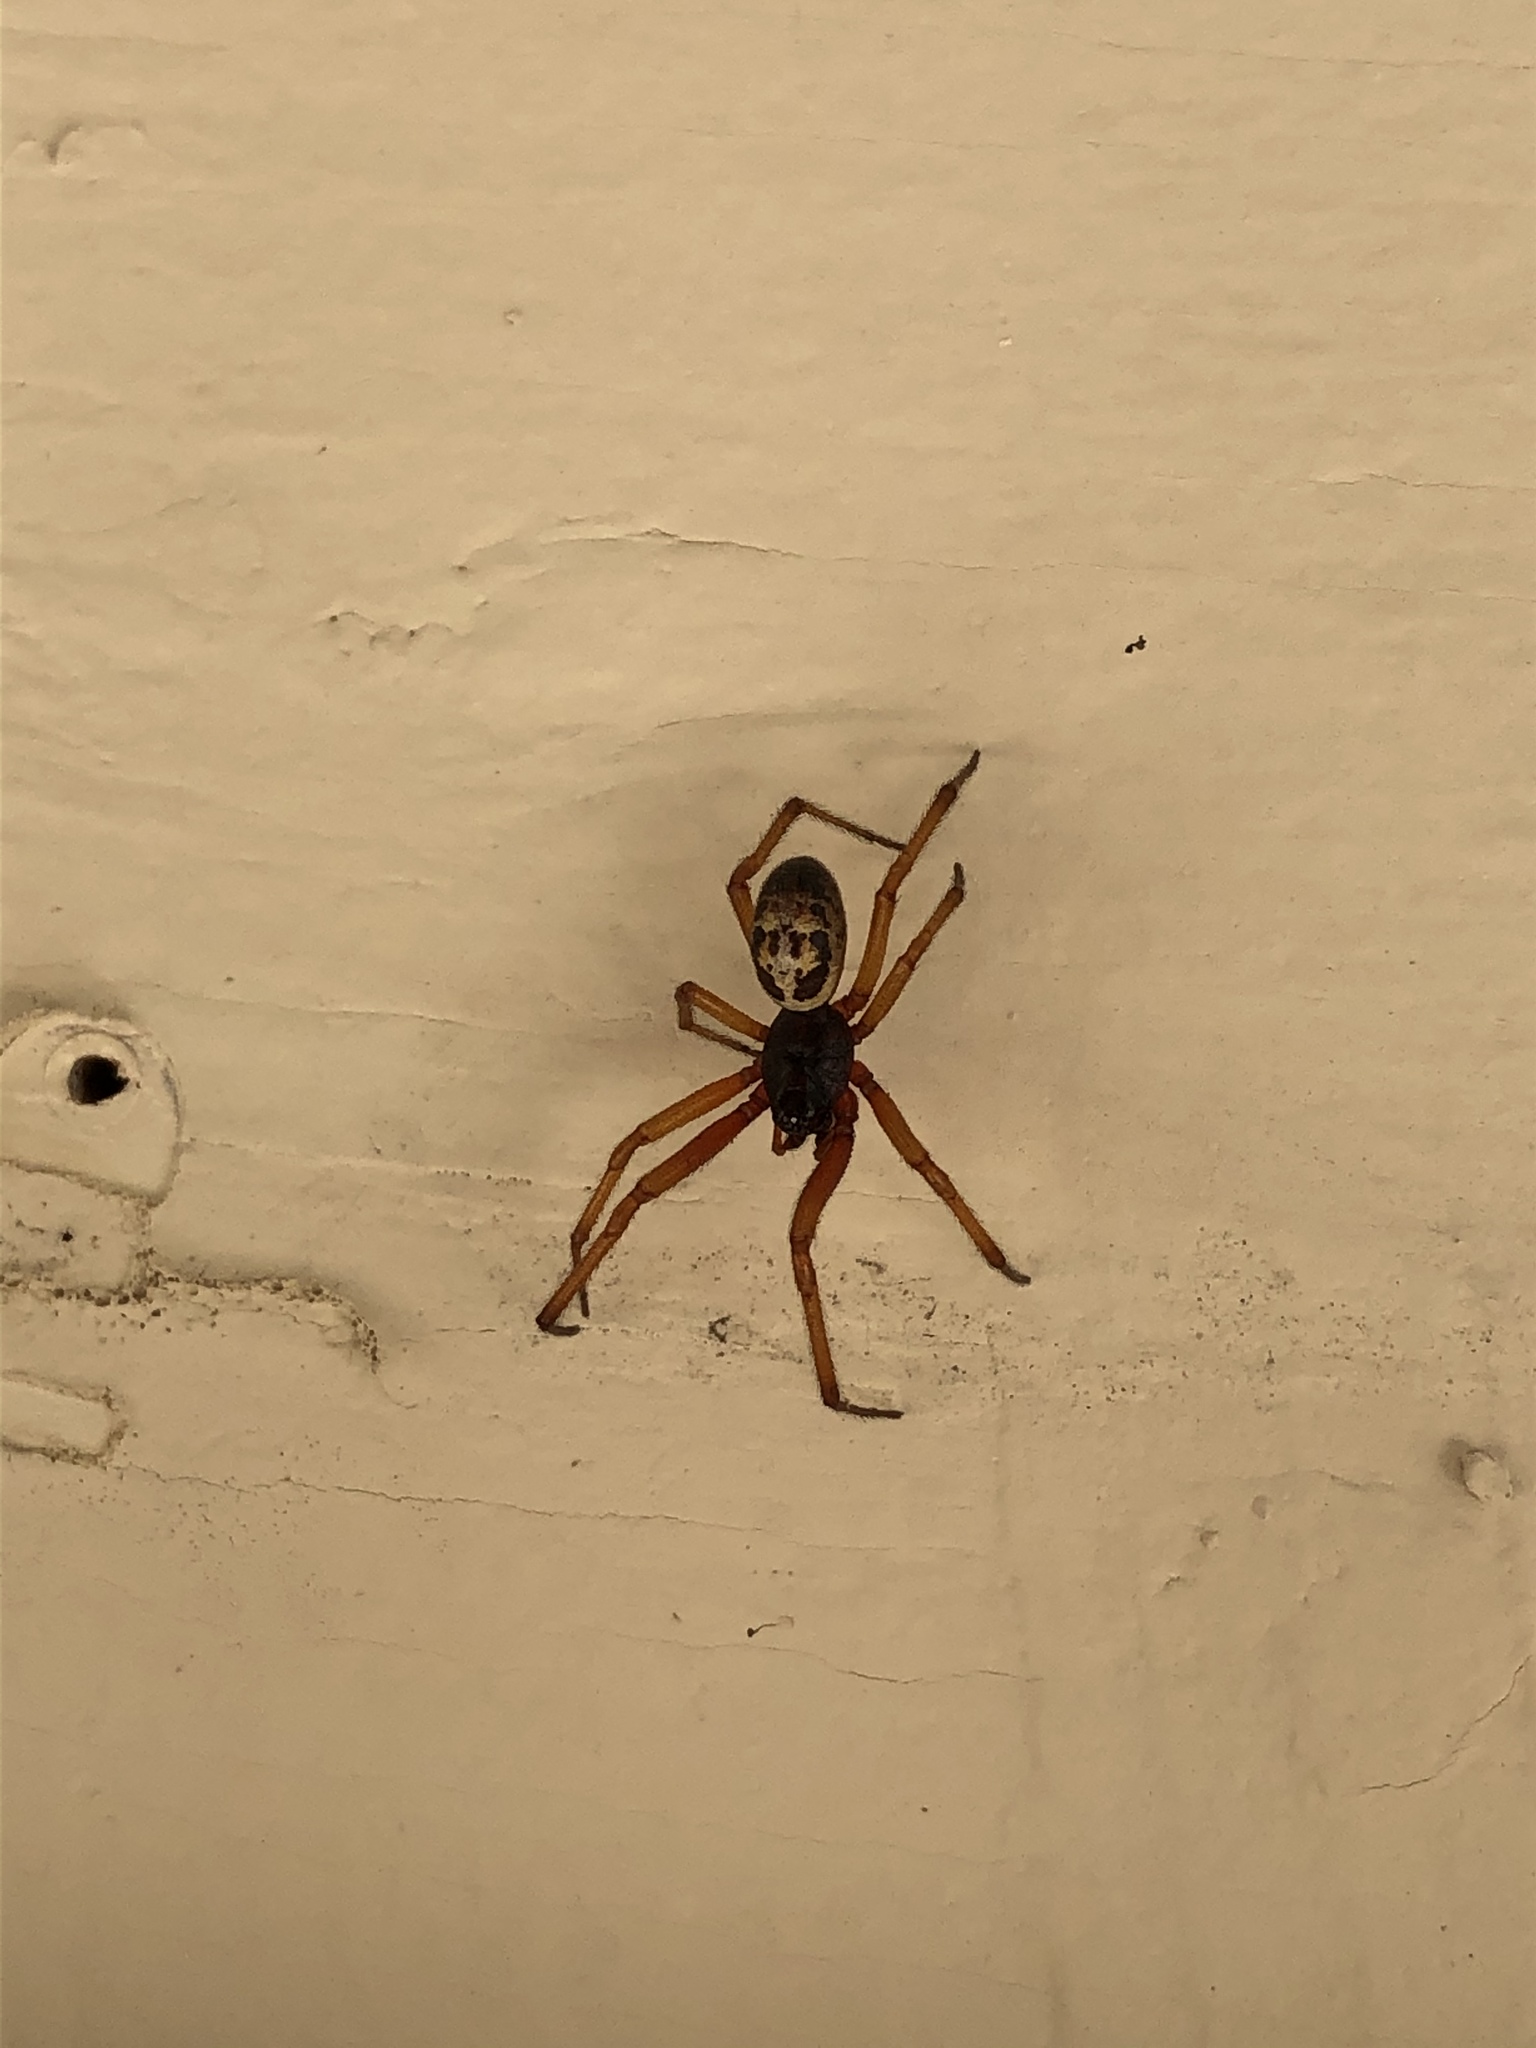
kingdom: Animalia
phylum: Arthropoda
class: Arachnida
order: Araneae
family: Theridiidae
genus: Steatoda
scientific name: Steatoda nobilis
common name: Cobweb weaver
